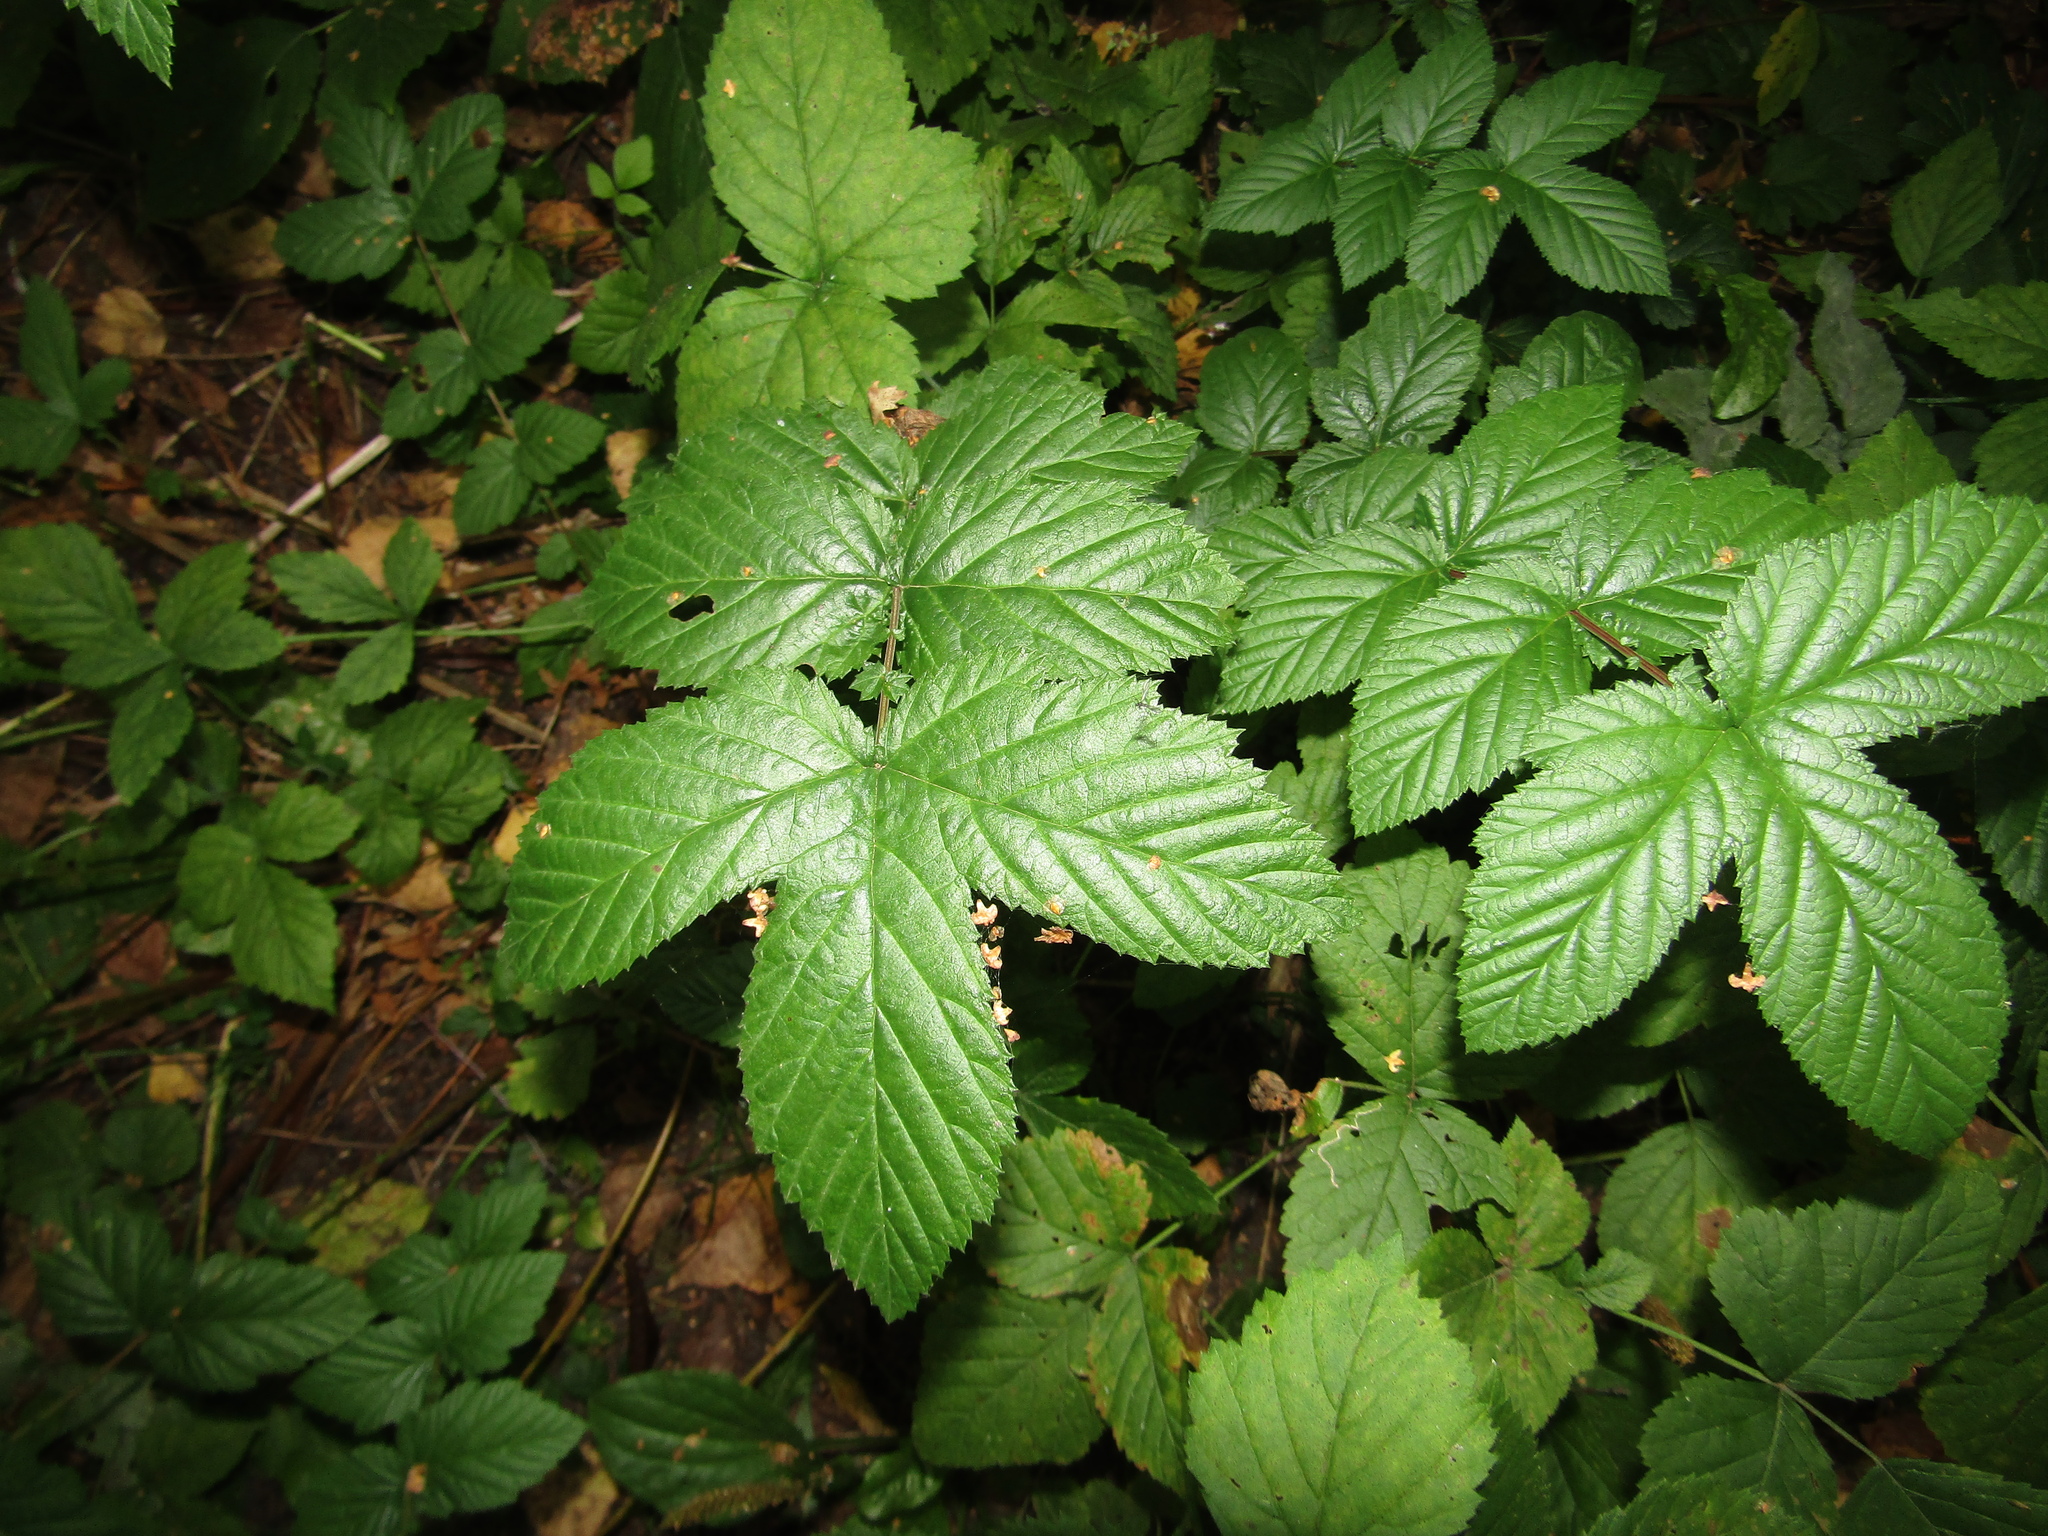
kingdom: Plantae
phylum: Tracheophyta
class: Magnoliopsida
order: Rosales
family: Rosaceae
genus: Filipendula
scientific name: Filipendula ulmaria
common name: Meadowsweet
